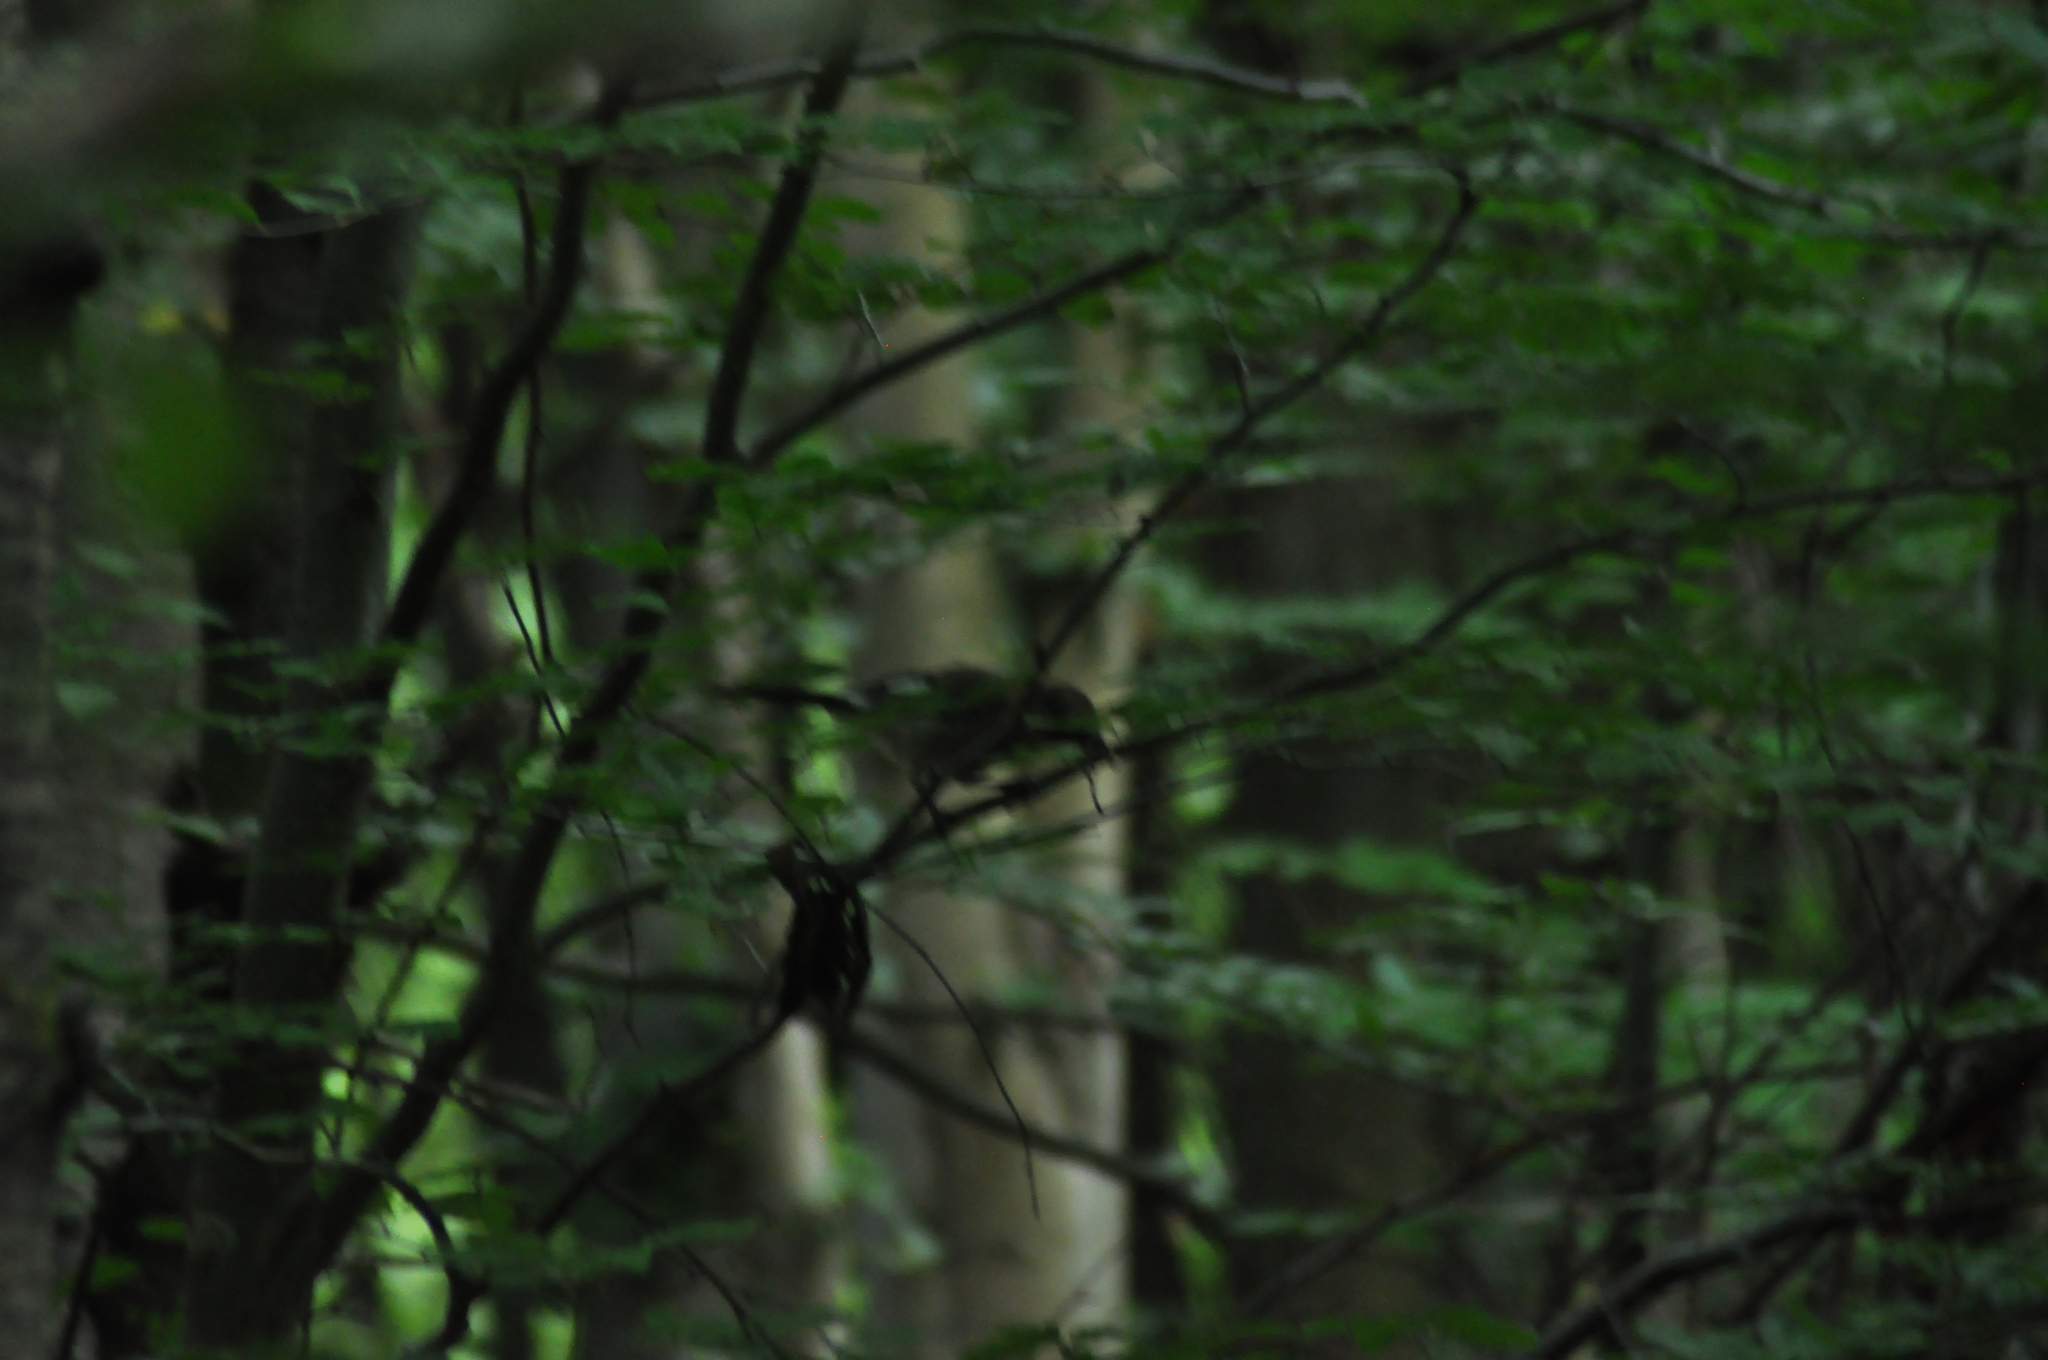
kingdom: Animalia
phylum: Chordata
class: Aves
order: Passeriformes
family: Corvidae
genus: Garrulus
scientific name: Garrulus glandarius
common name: Eurasian jay
